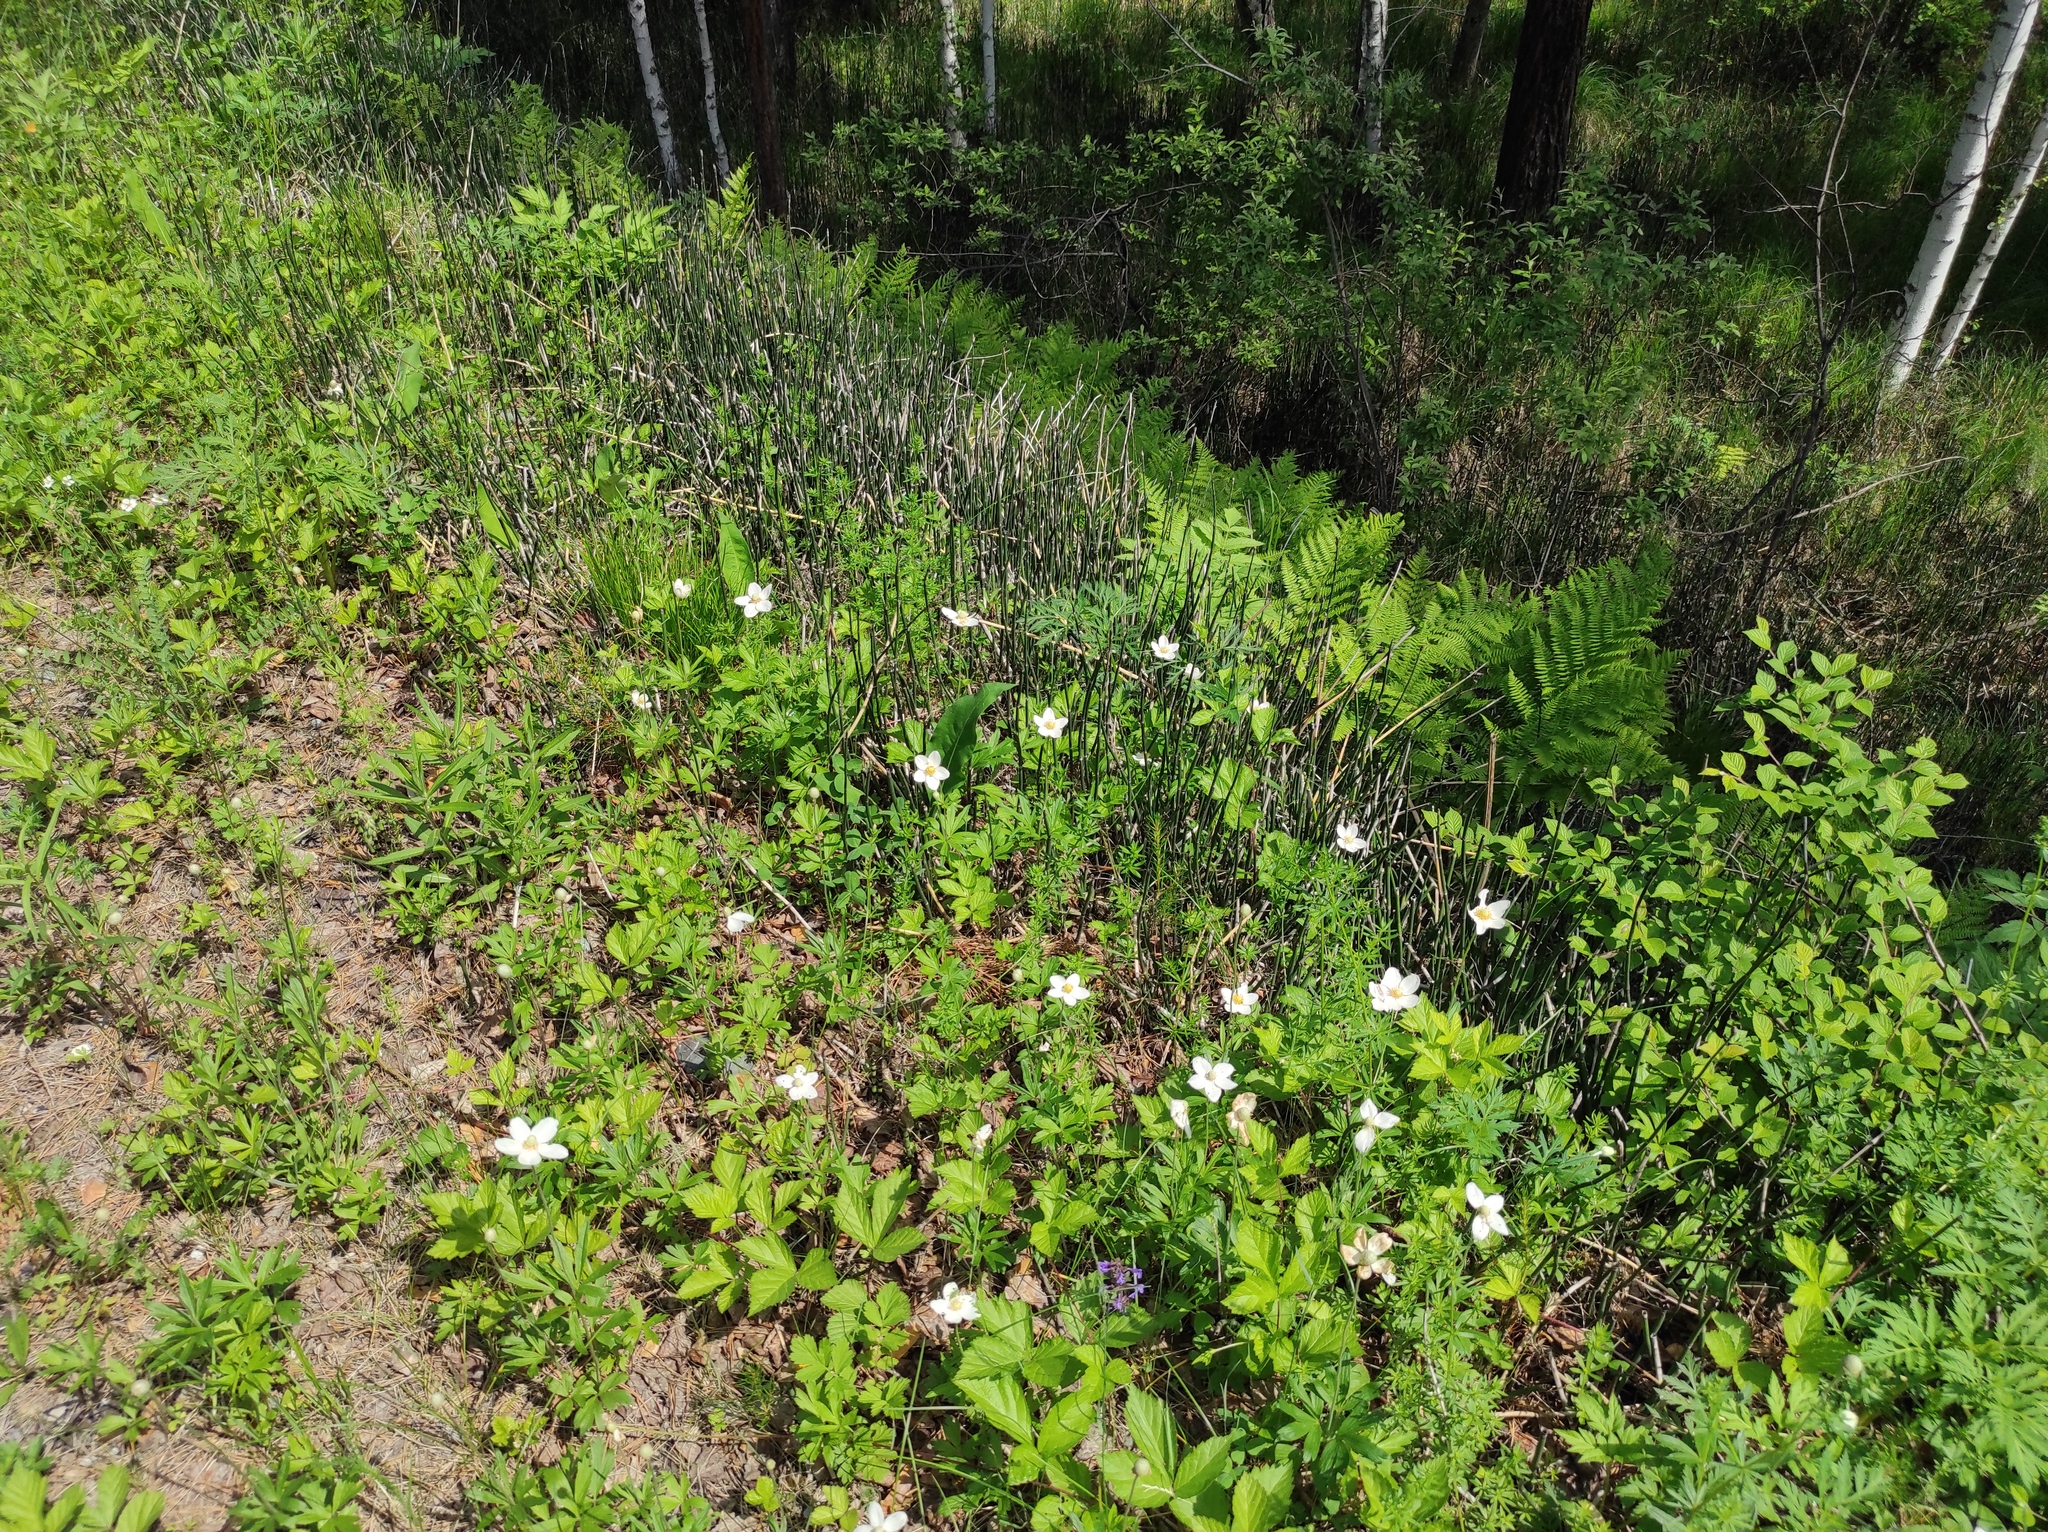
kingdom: Plantae
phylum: Tracheophyta
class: Magnoliopsida
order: Ranunculales
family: Ranunculaceae
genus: Anemone
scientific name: Anemone sylvestris
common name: Snowdrop anemone
